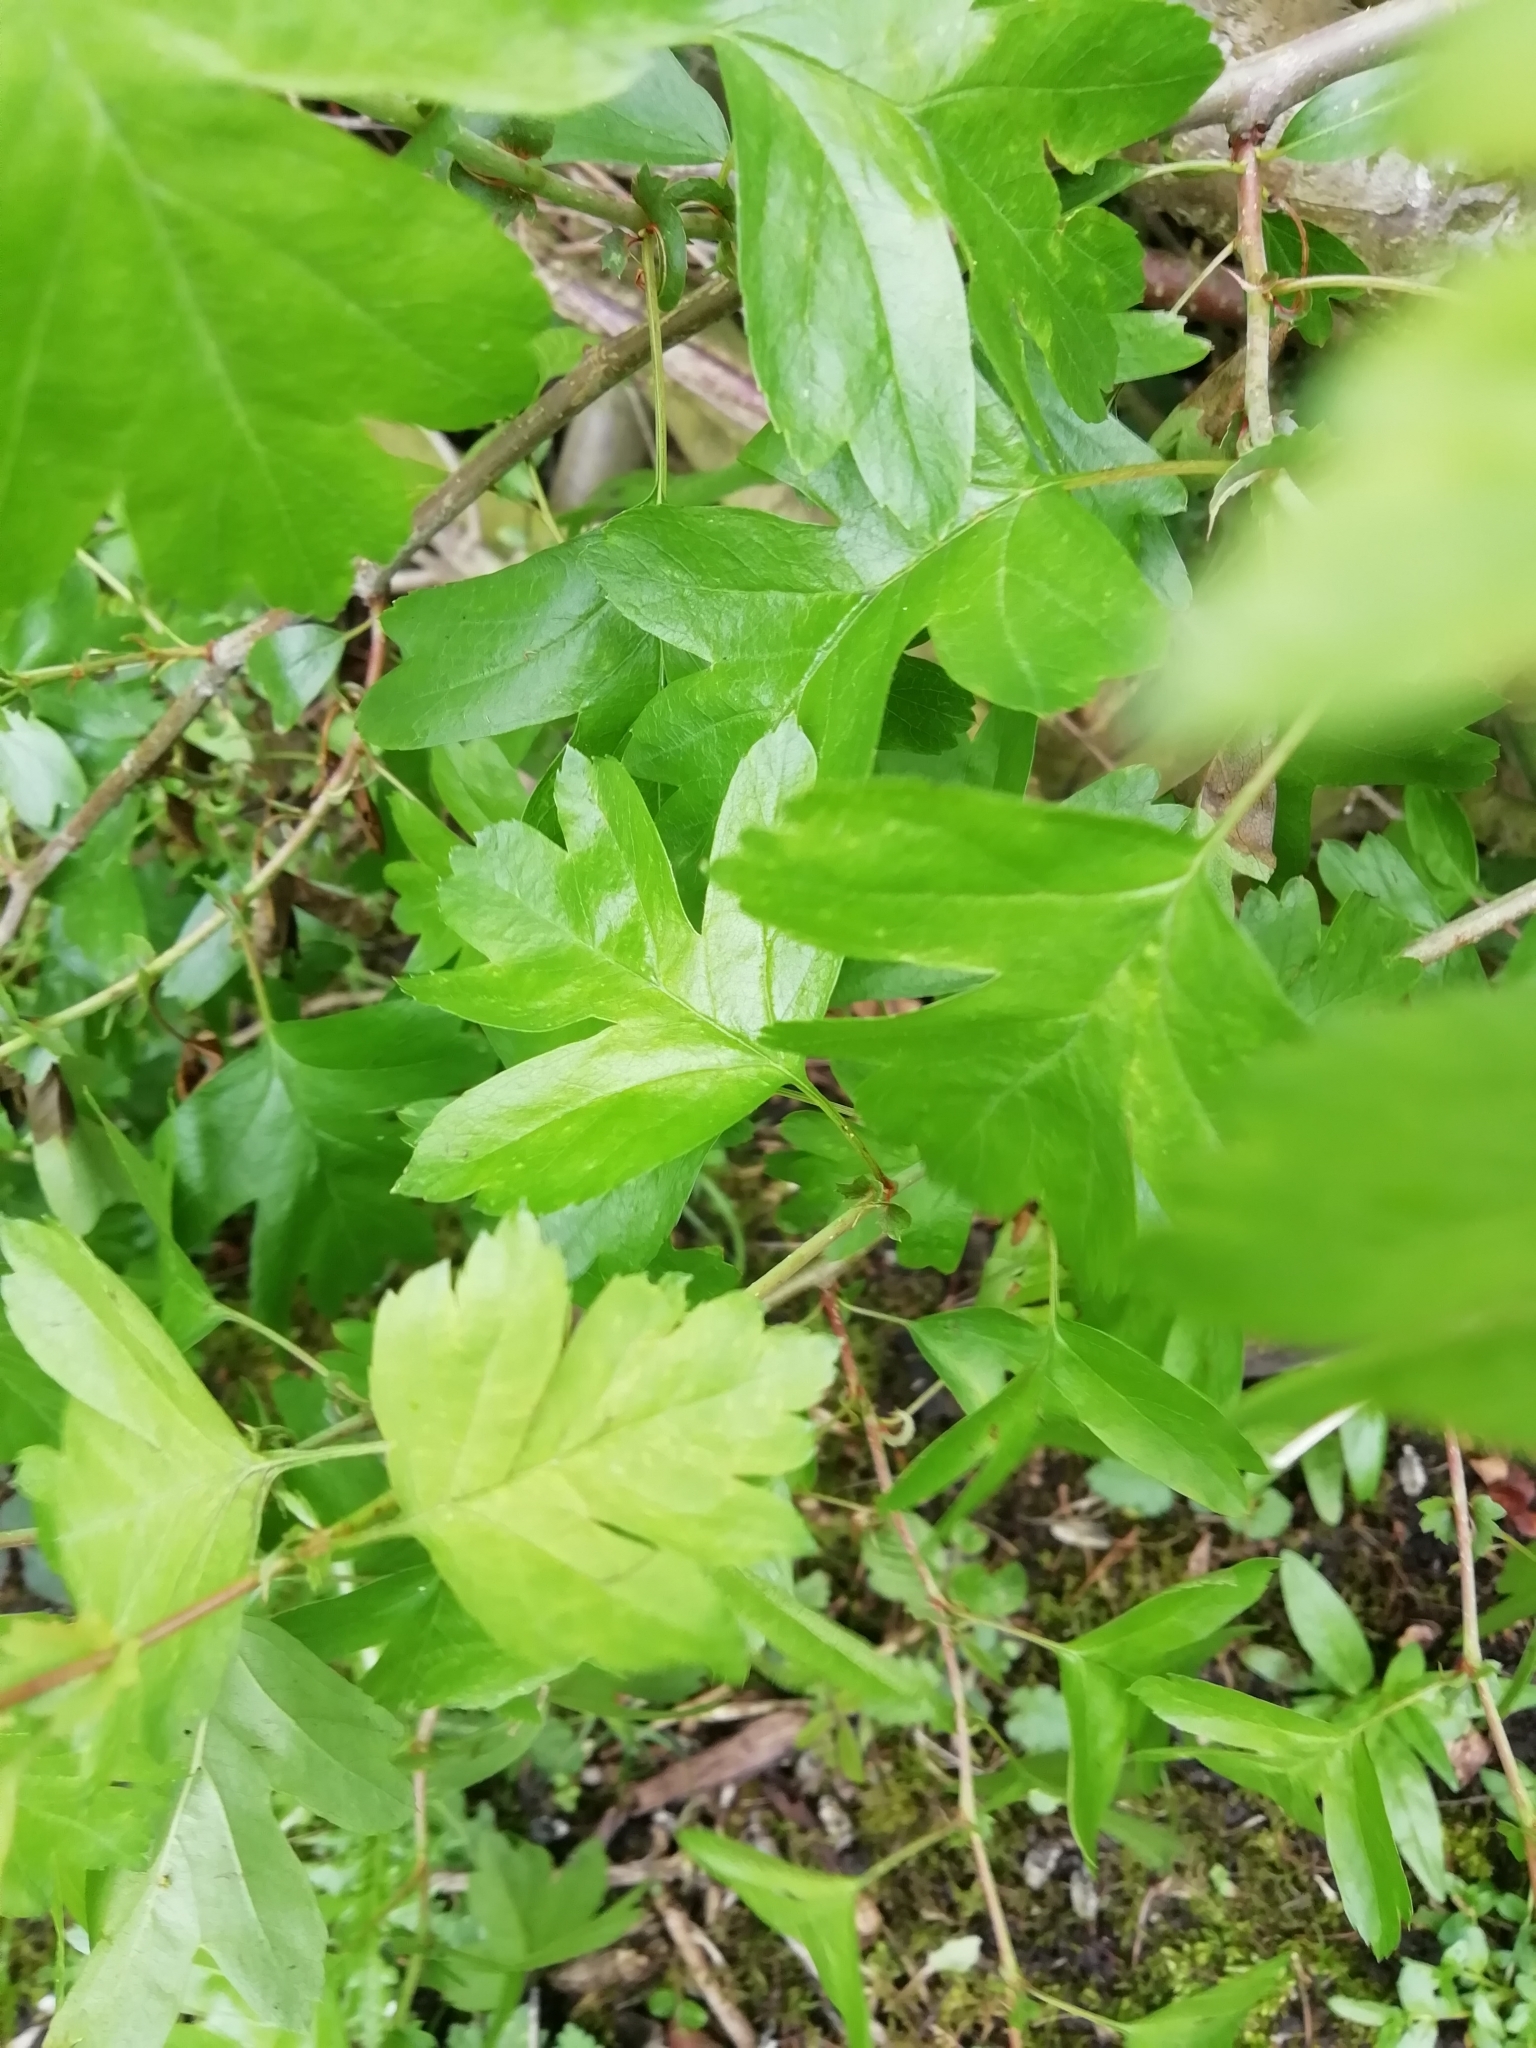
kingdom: Plantae
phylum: Tracheophyta
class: Magnoliopsida
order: Rosales
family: Rosaceae
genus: Crataegus
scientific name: Crataegus monogyna
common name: Hawthorn
